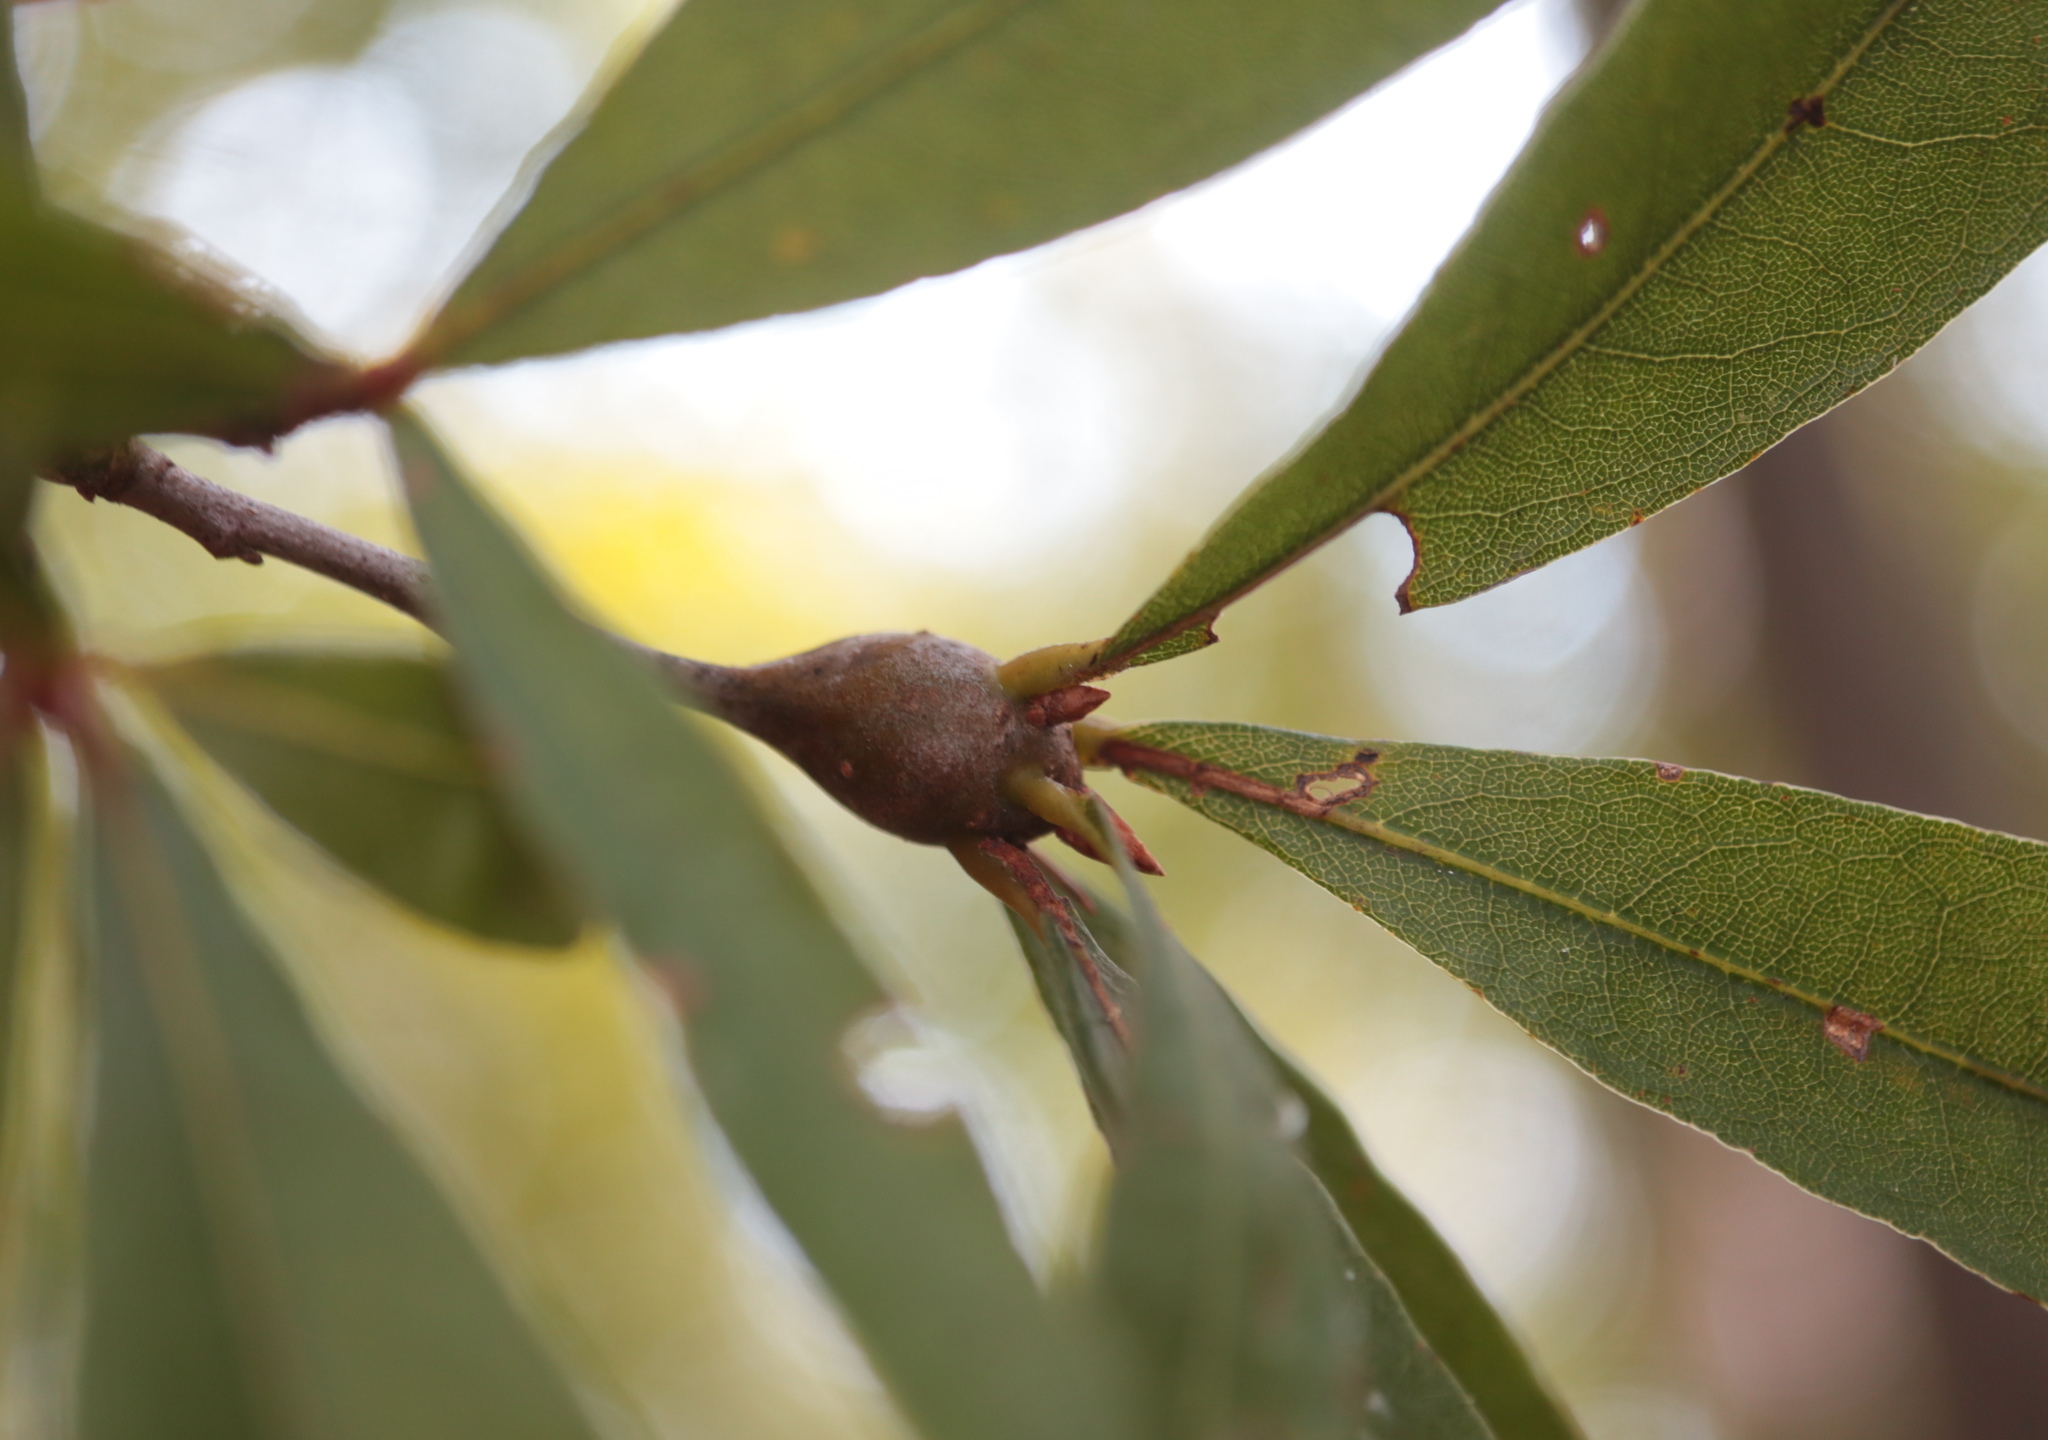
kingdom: Animalia
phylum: Arthropoda
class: Insecta
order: Hymenoptera
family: Cynipidae
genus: Zapatella
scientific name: Zapatella quercusphellos
